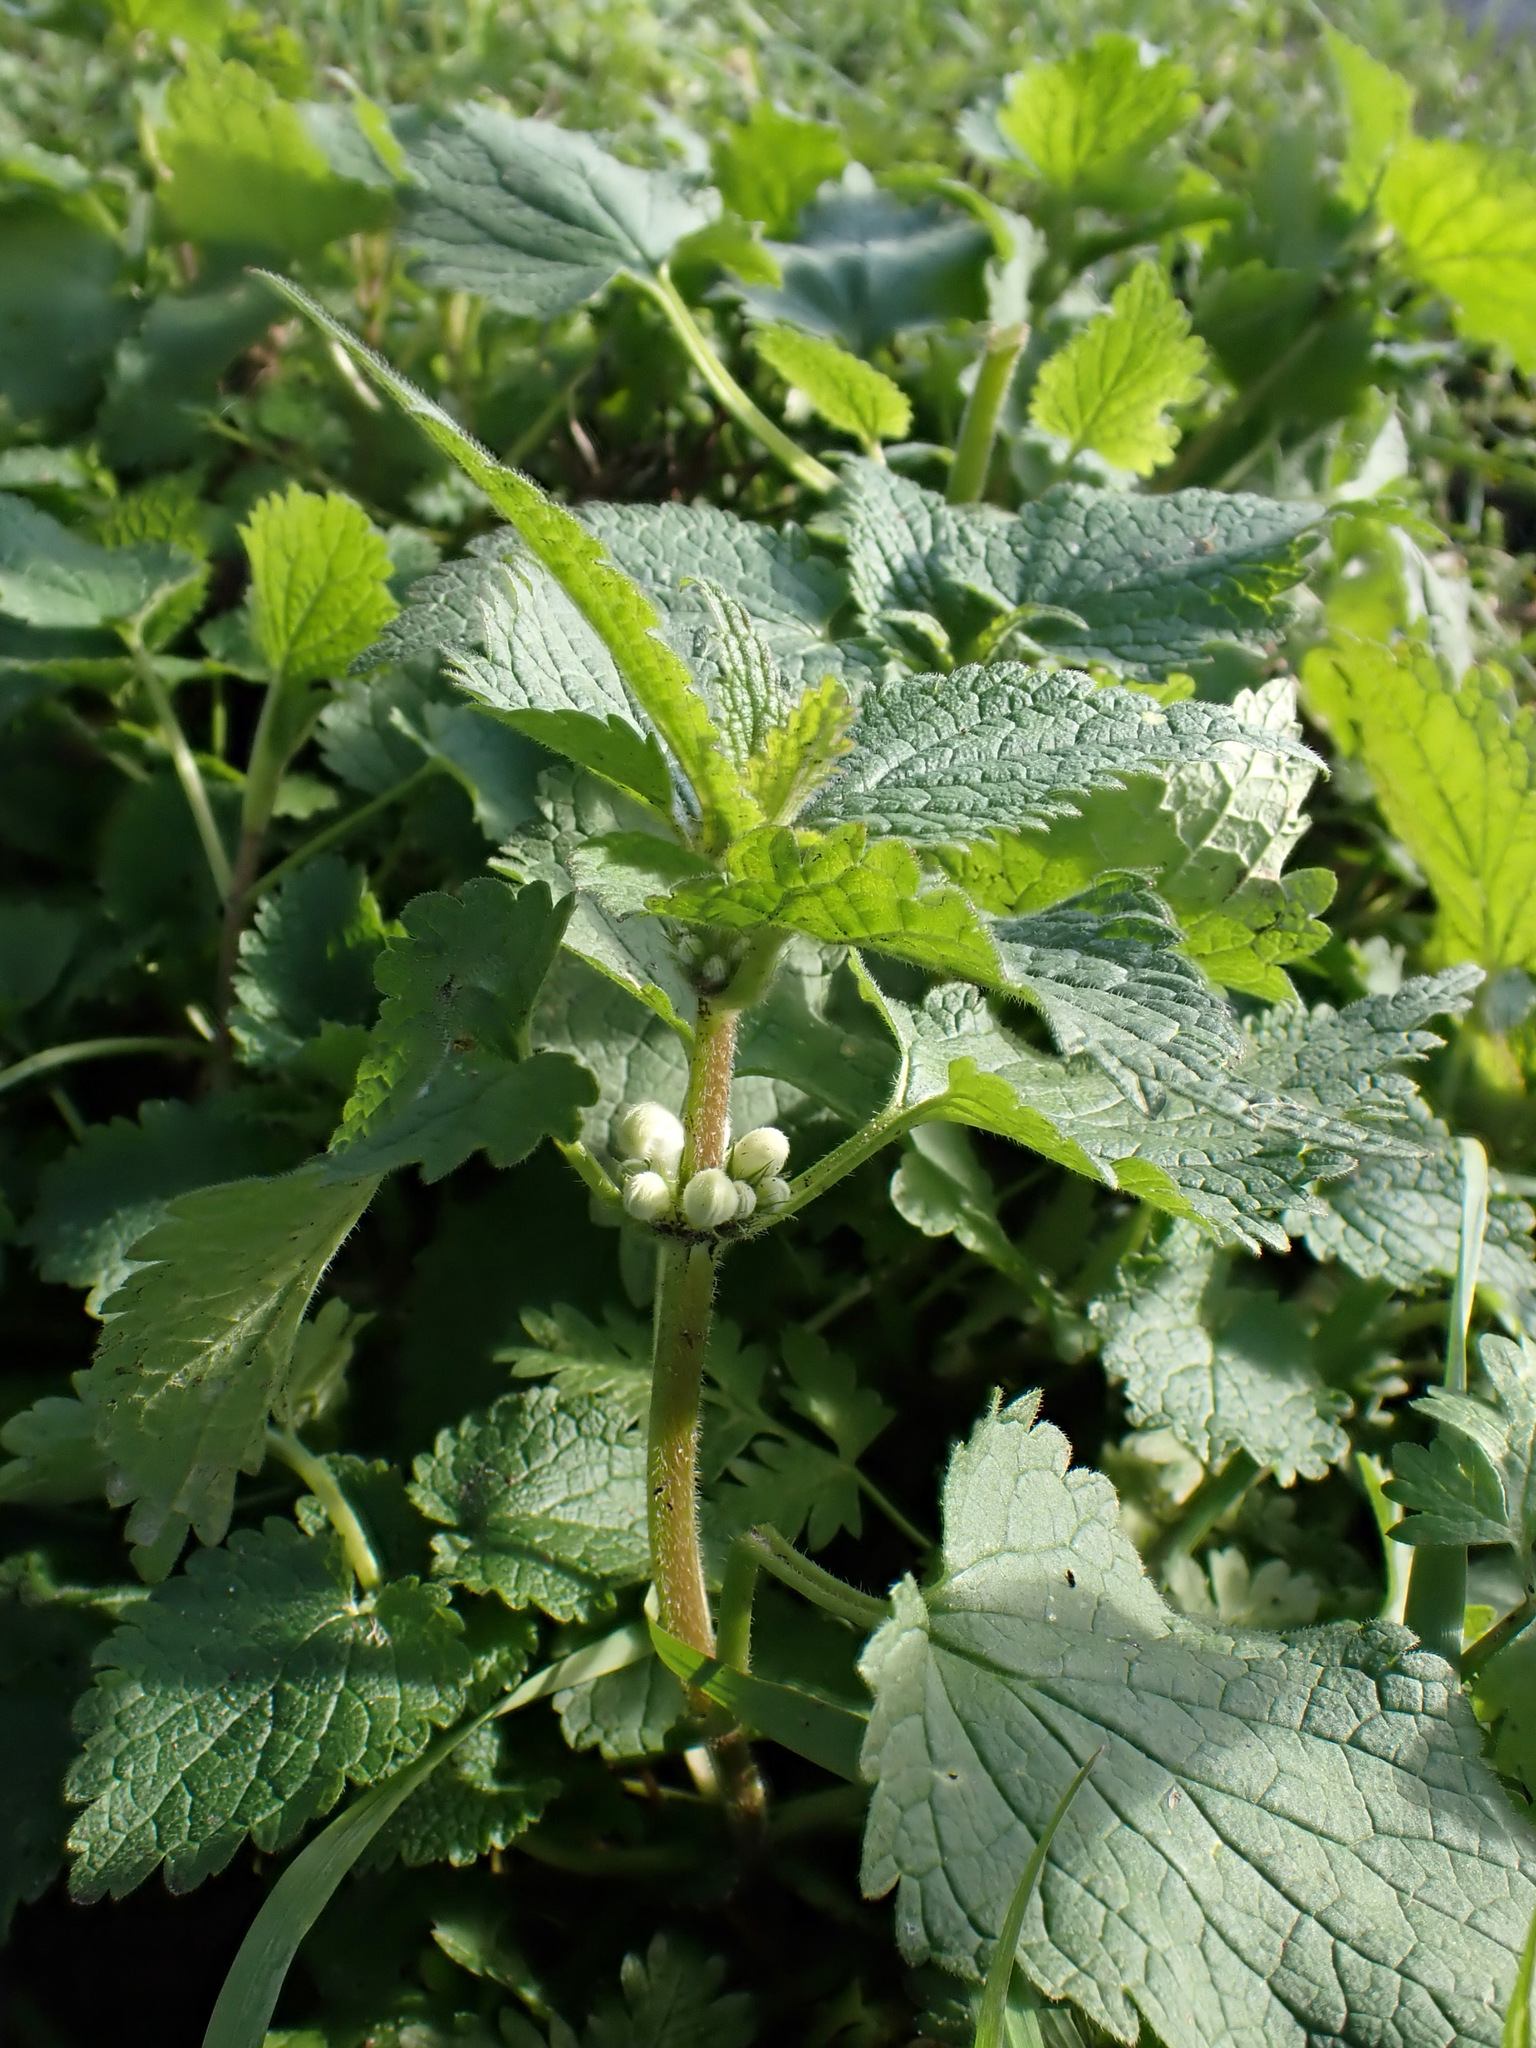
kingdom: Plantae
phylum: Tracheophyta
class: Magnoliopsida
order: Lamiales
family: Lamiaceae
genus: Lamium
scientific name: Lamium album
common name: White dead-nettle
